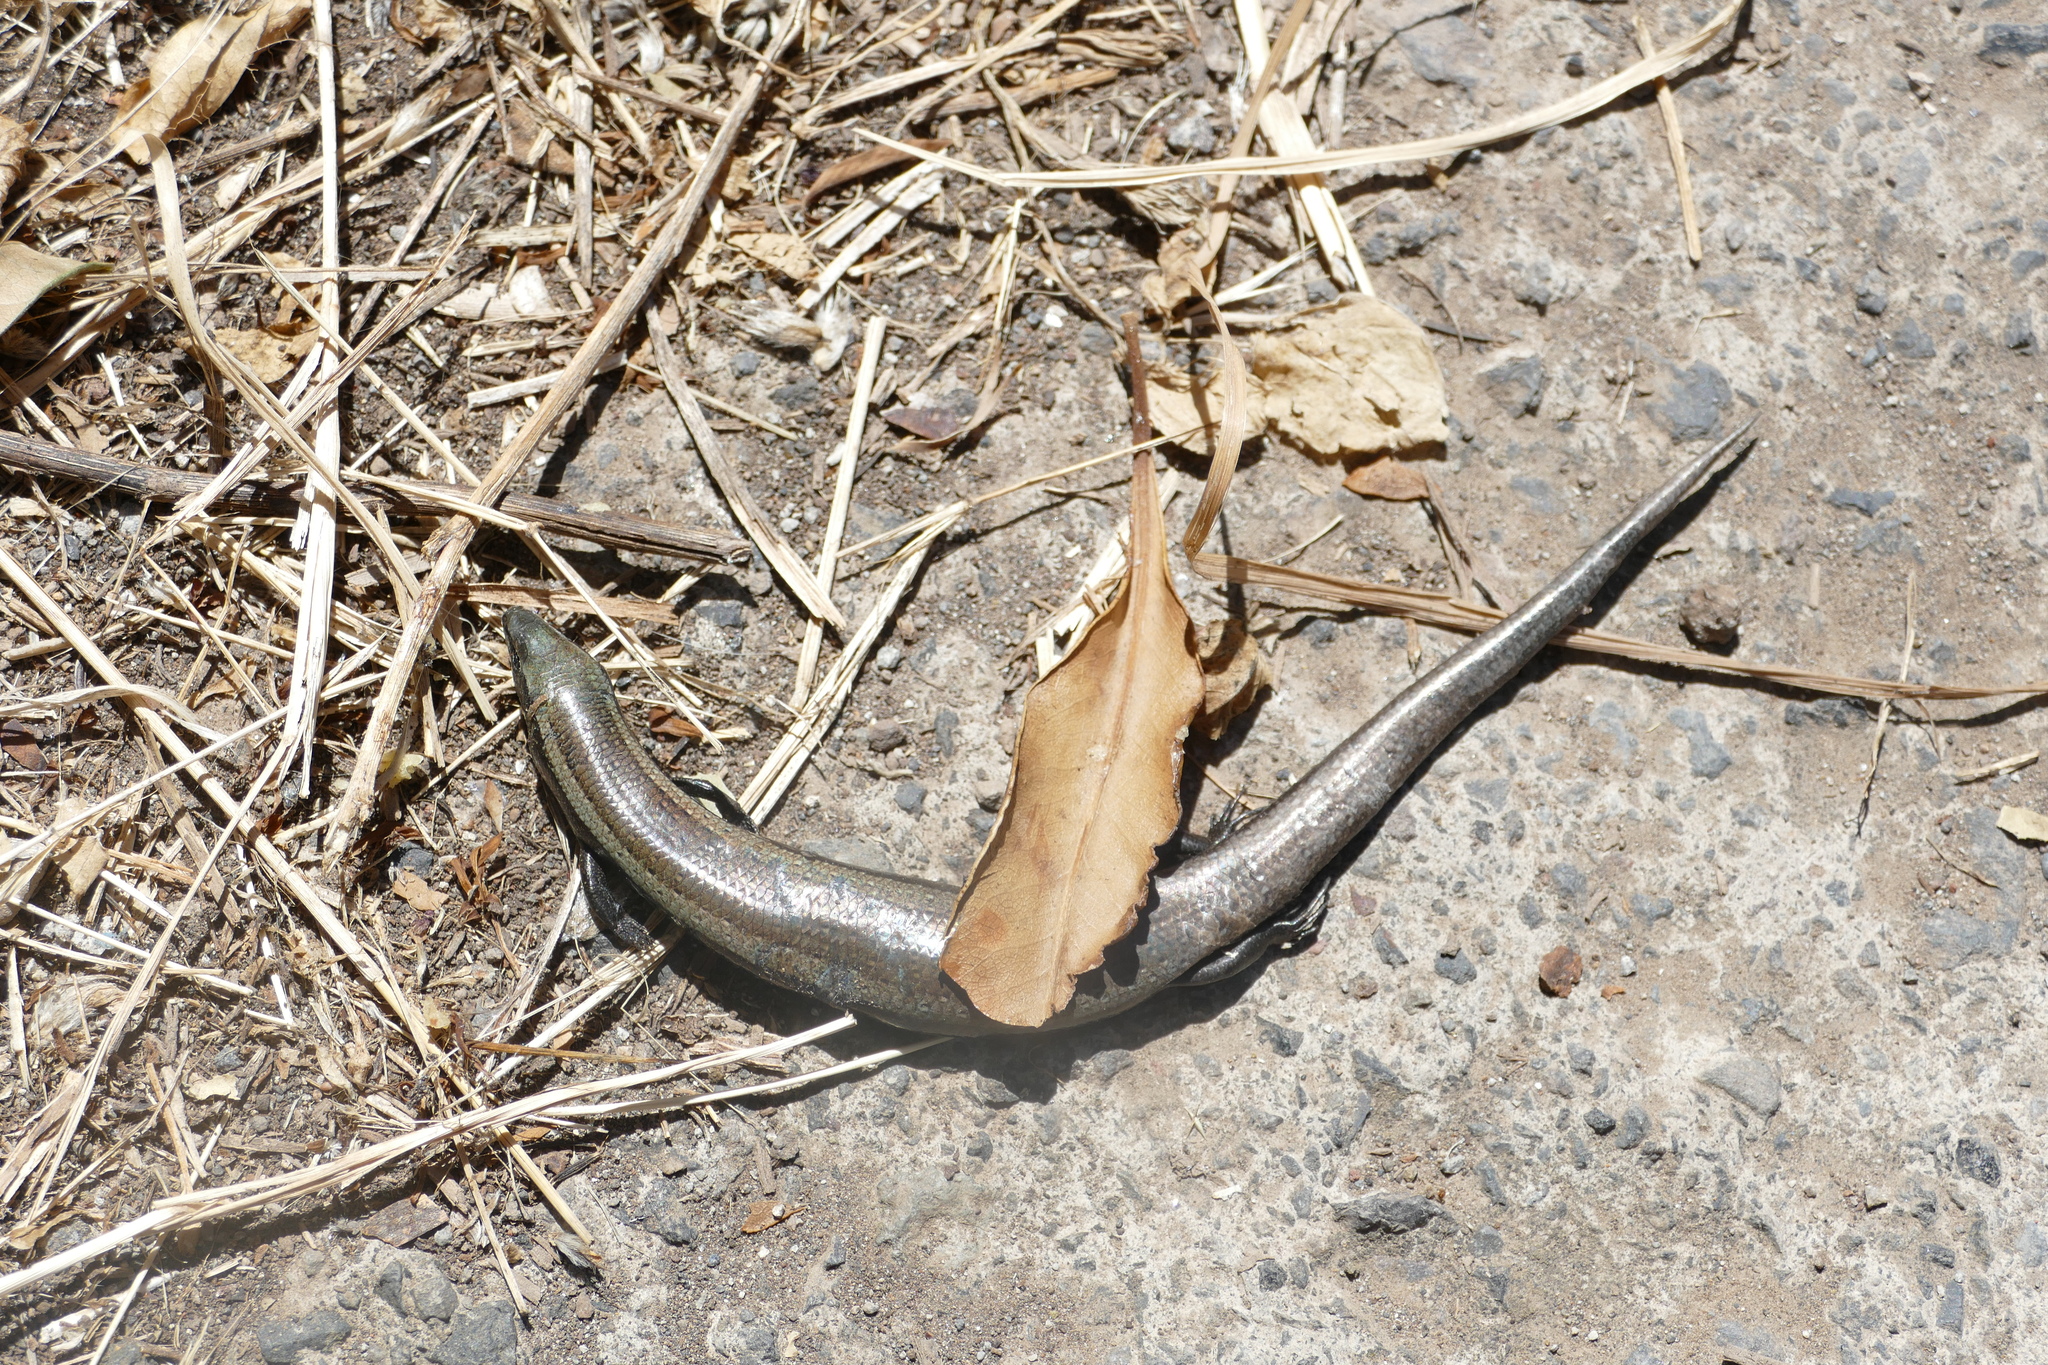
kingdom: Animalia
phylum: Chordata
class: Squamata
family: Scincidae
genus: Chalcides
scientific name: Chalcides viridanus
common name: Canaryan cylindrical skink
